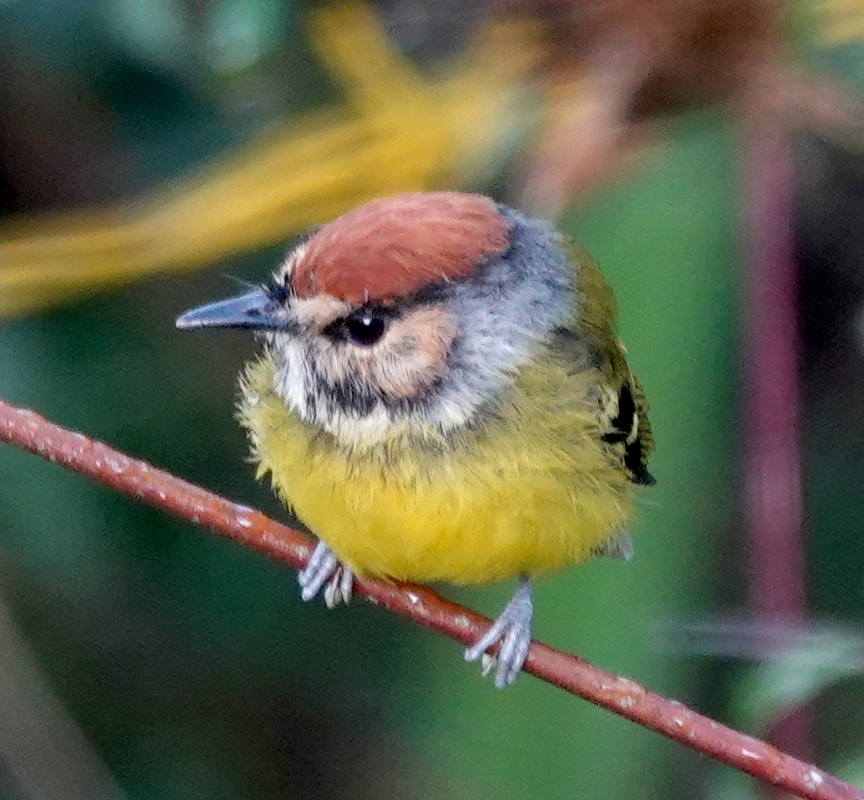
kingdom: Animalia
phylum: Chordata
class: Aves
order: Passeriformes
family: Tyrannidae
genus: Poecilotriccus
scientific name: Poecilotriccus ruficeps
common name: Rufous-crowned tody-flycatcher
